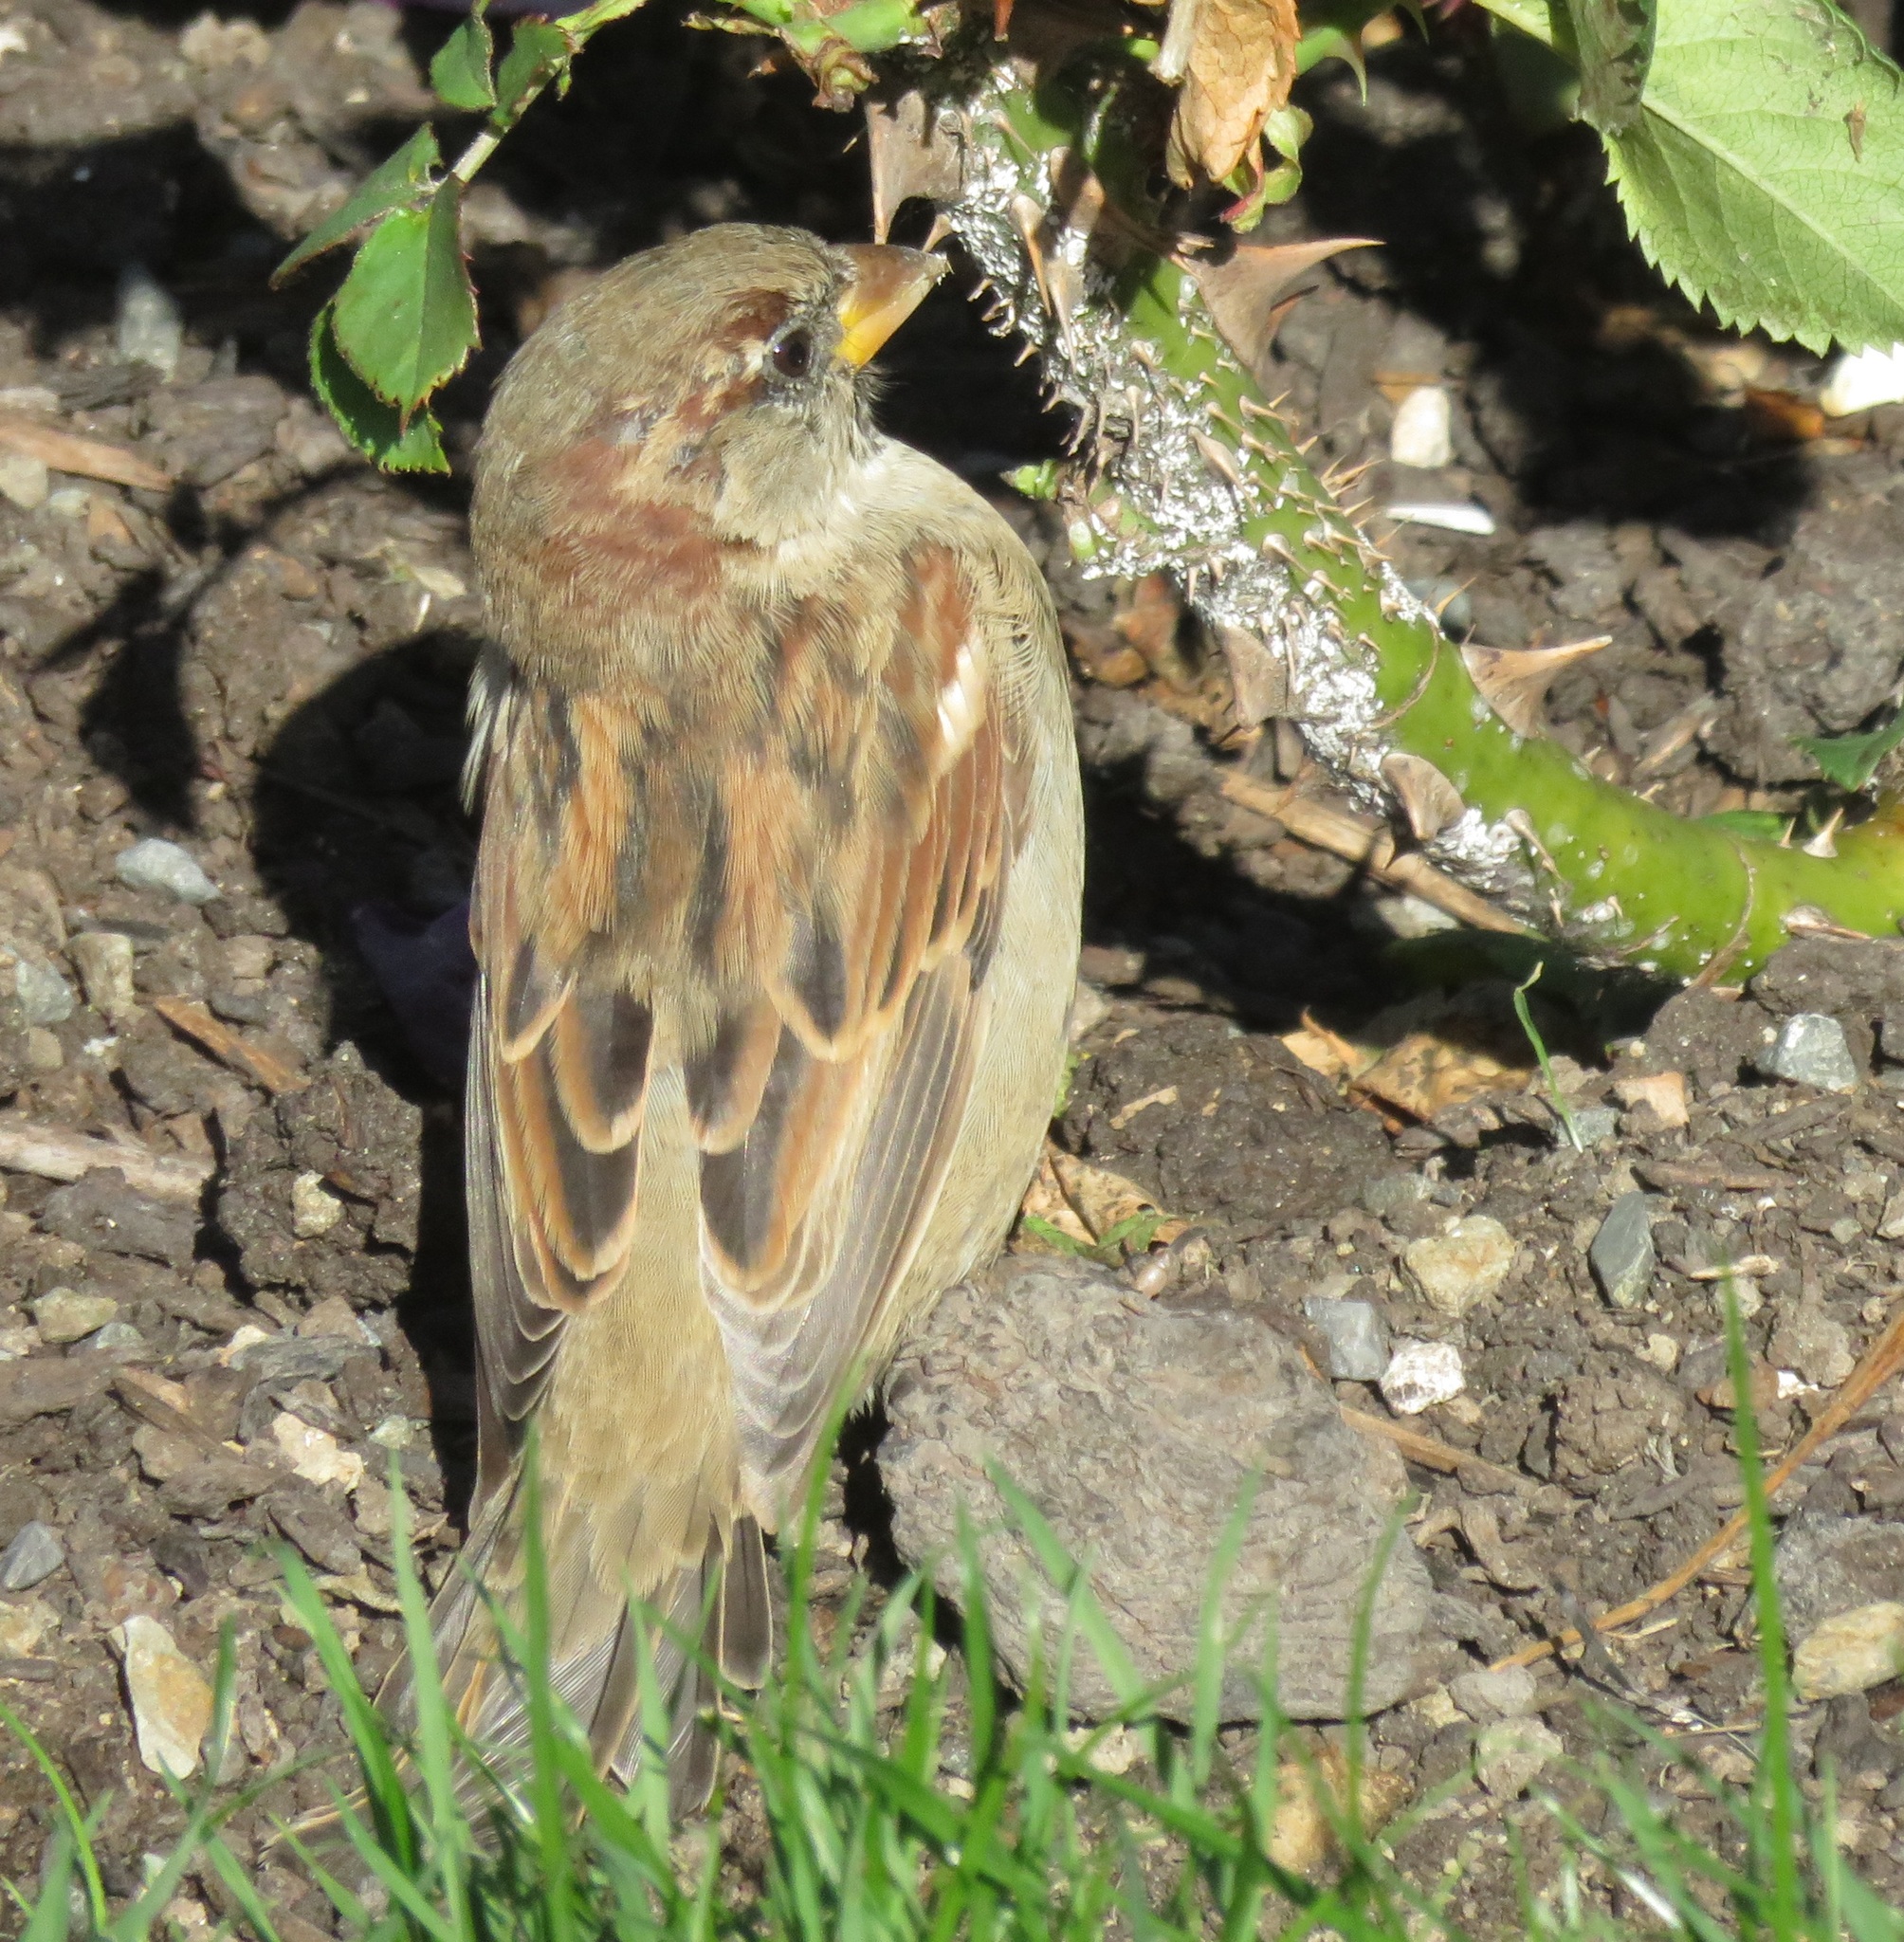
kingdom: Animalia
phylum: Chordata
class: Aves
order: Passeriformes
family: Passeridae
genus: Passer
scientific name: Passer domesticus
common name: House sparrow
